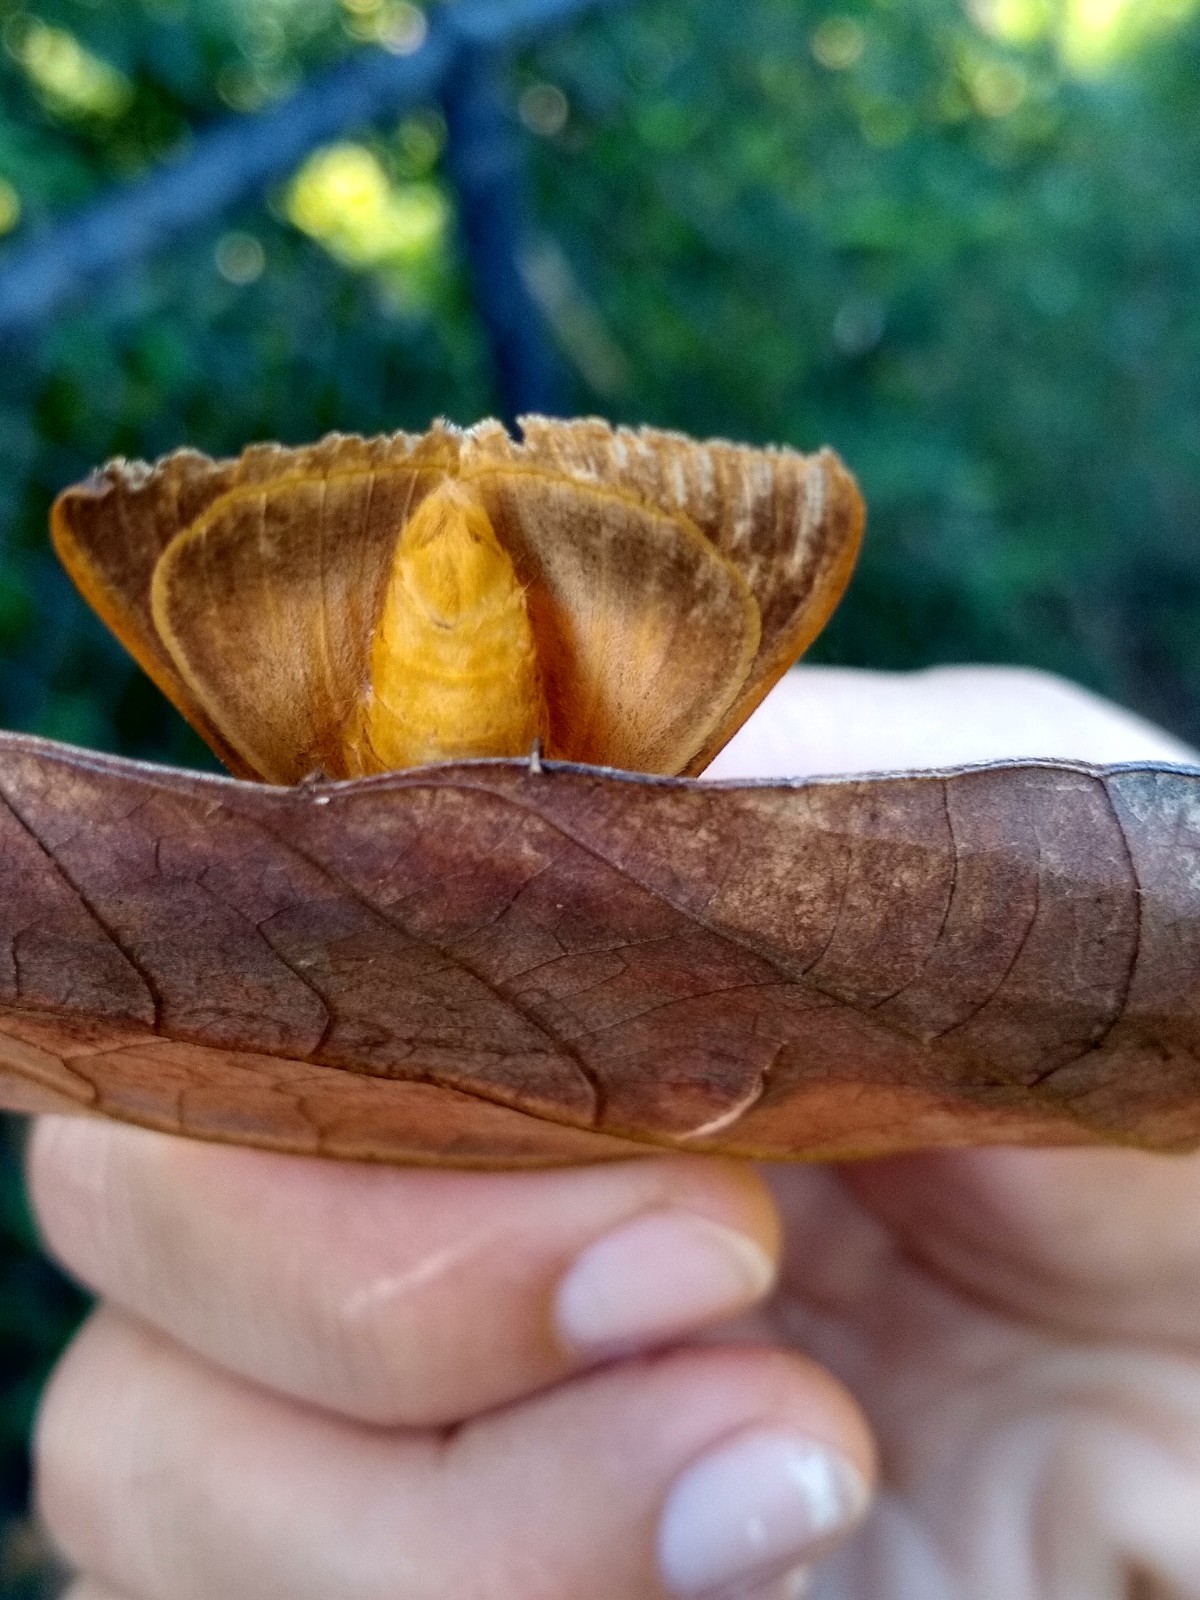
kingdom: Animalia
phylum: Arthropoda
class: Insecta
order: Lepidoptera
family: Erebidae
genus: Ophiusa
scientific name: Ophiusa disjungens
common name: Moth
